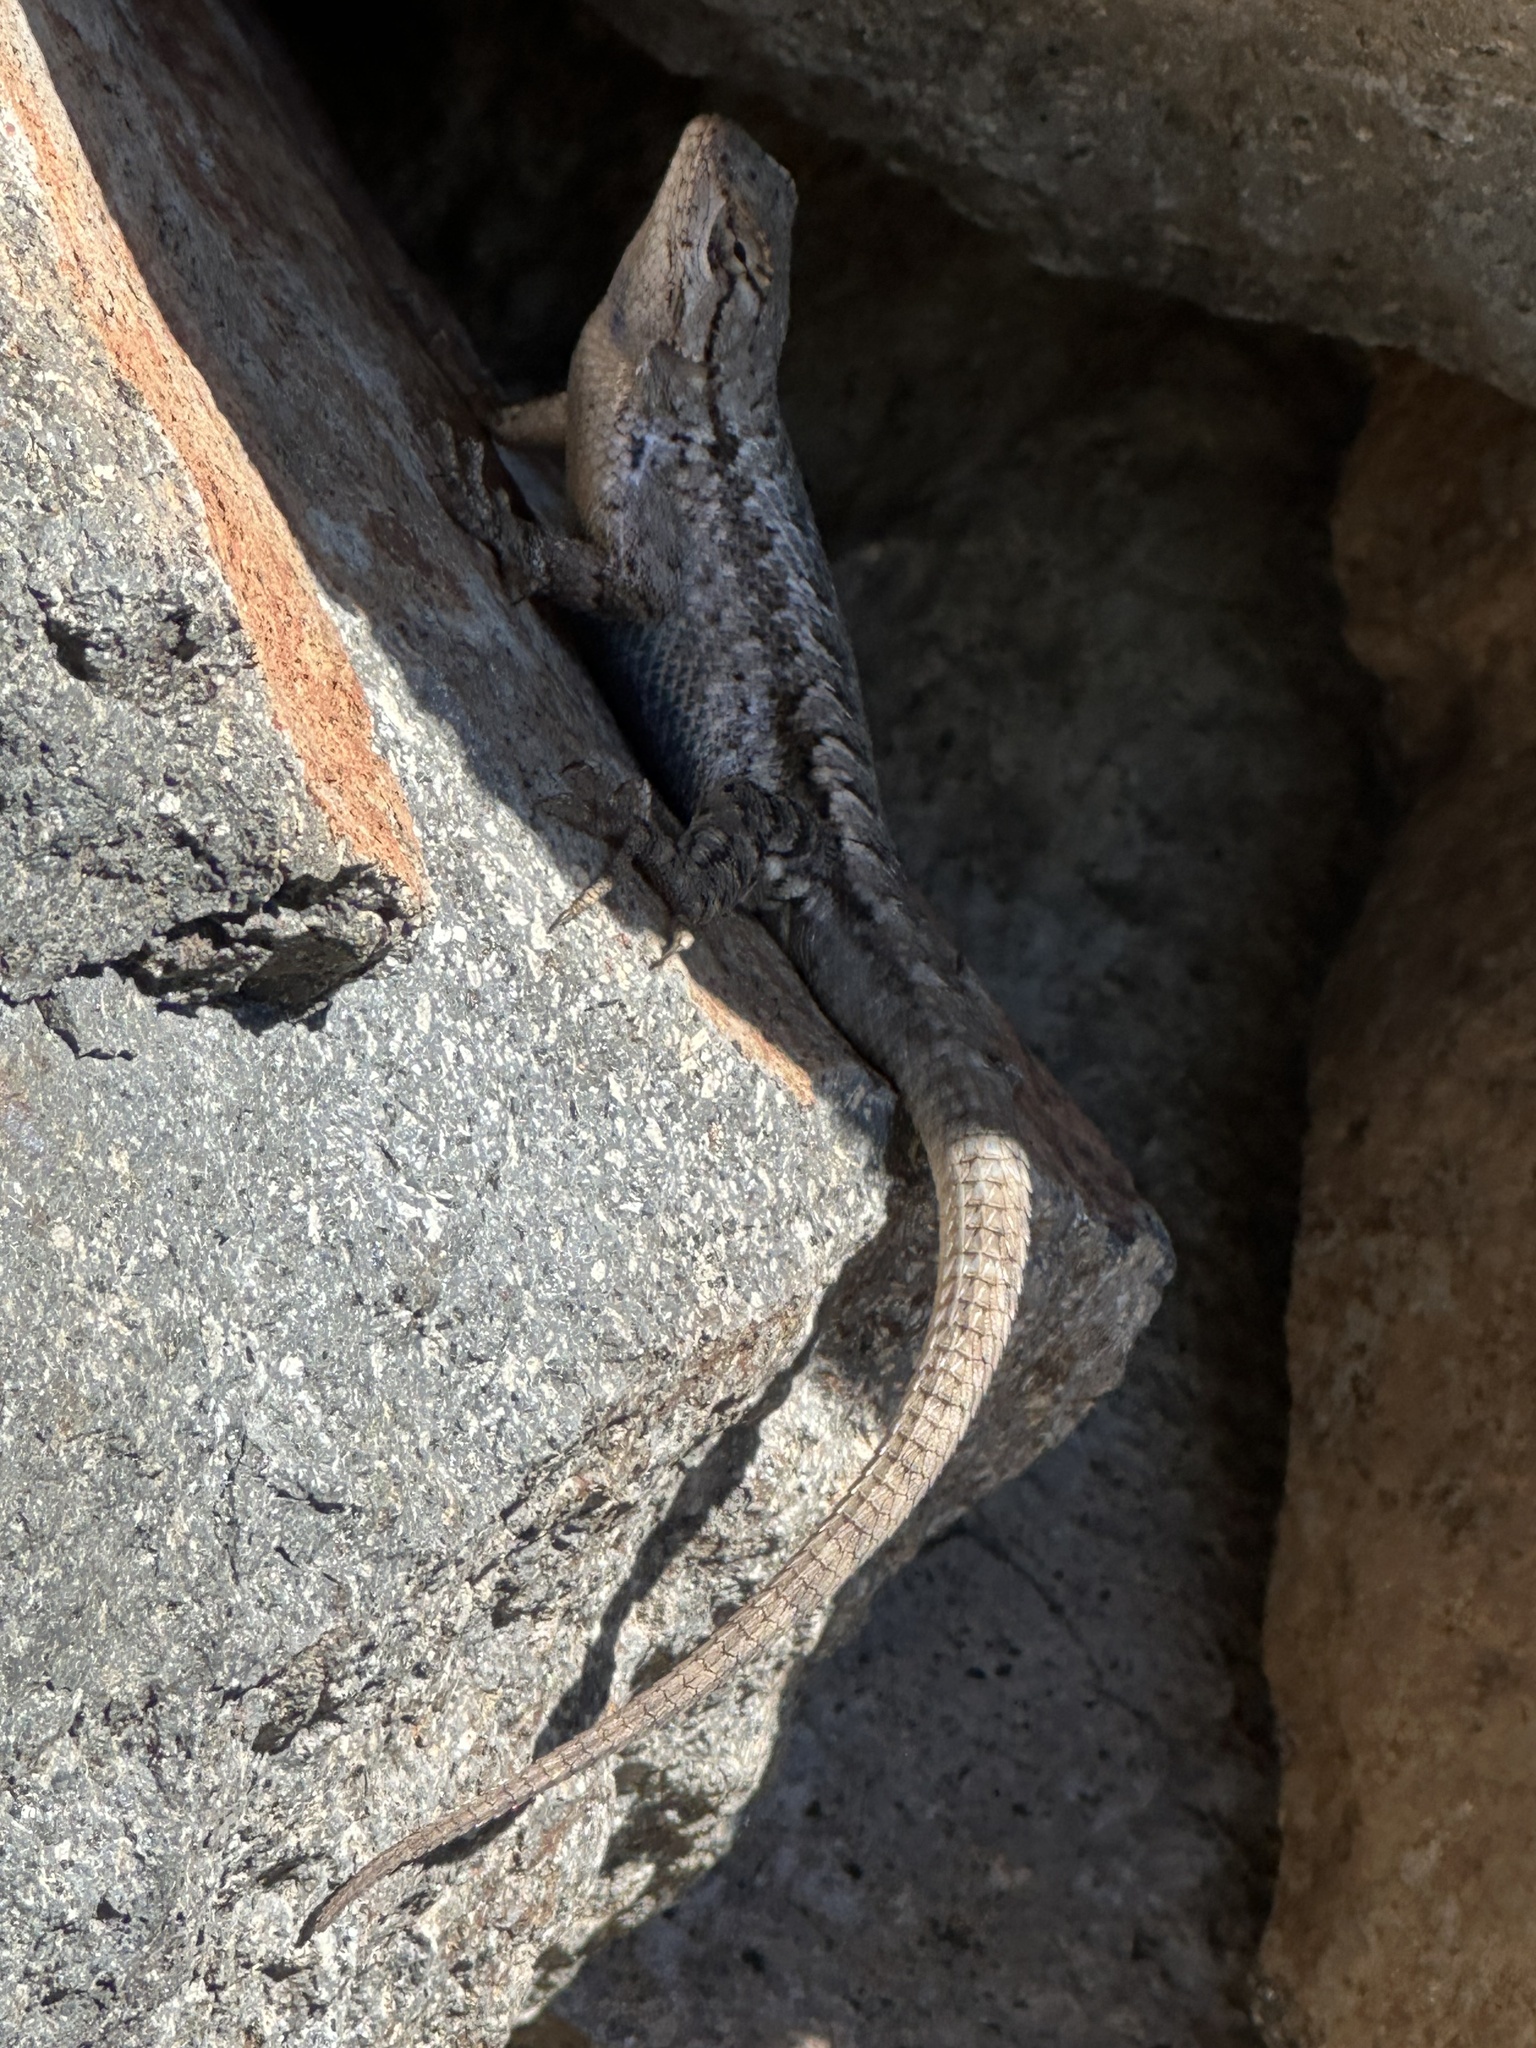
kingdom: Animalia
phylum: Chordata
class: Squamata
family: Phrynosomatidae
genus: Sceloporus
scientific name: Sceloporus occidentalis
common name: Western fence lizard
